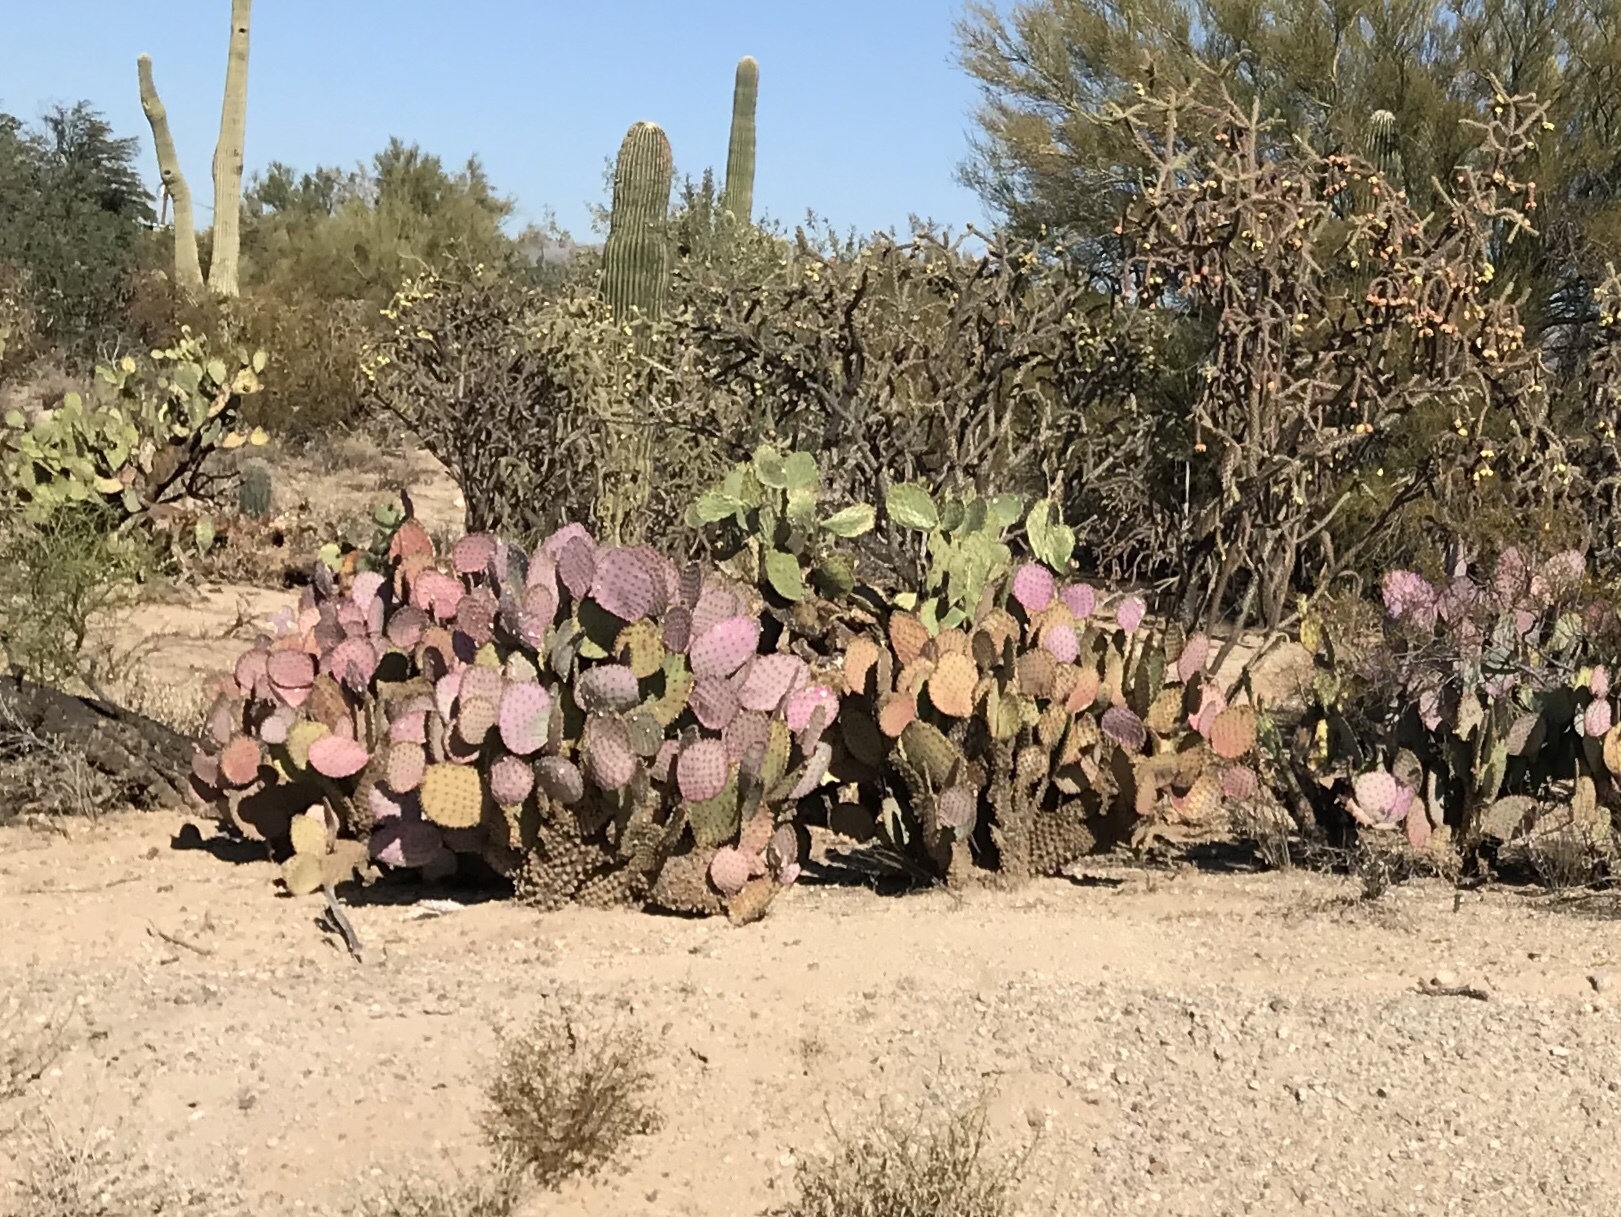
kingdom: Plantae
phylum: Tracheophyta
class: Magnoliopsida
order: Caryophyllales
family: Cactaceae
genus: Opuntia
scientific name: Opuntia gosseliniana
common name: Violet prickly-pear
